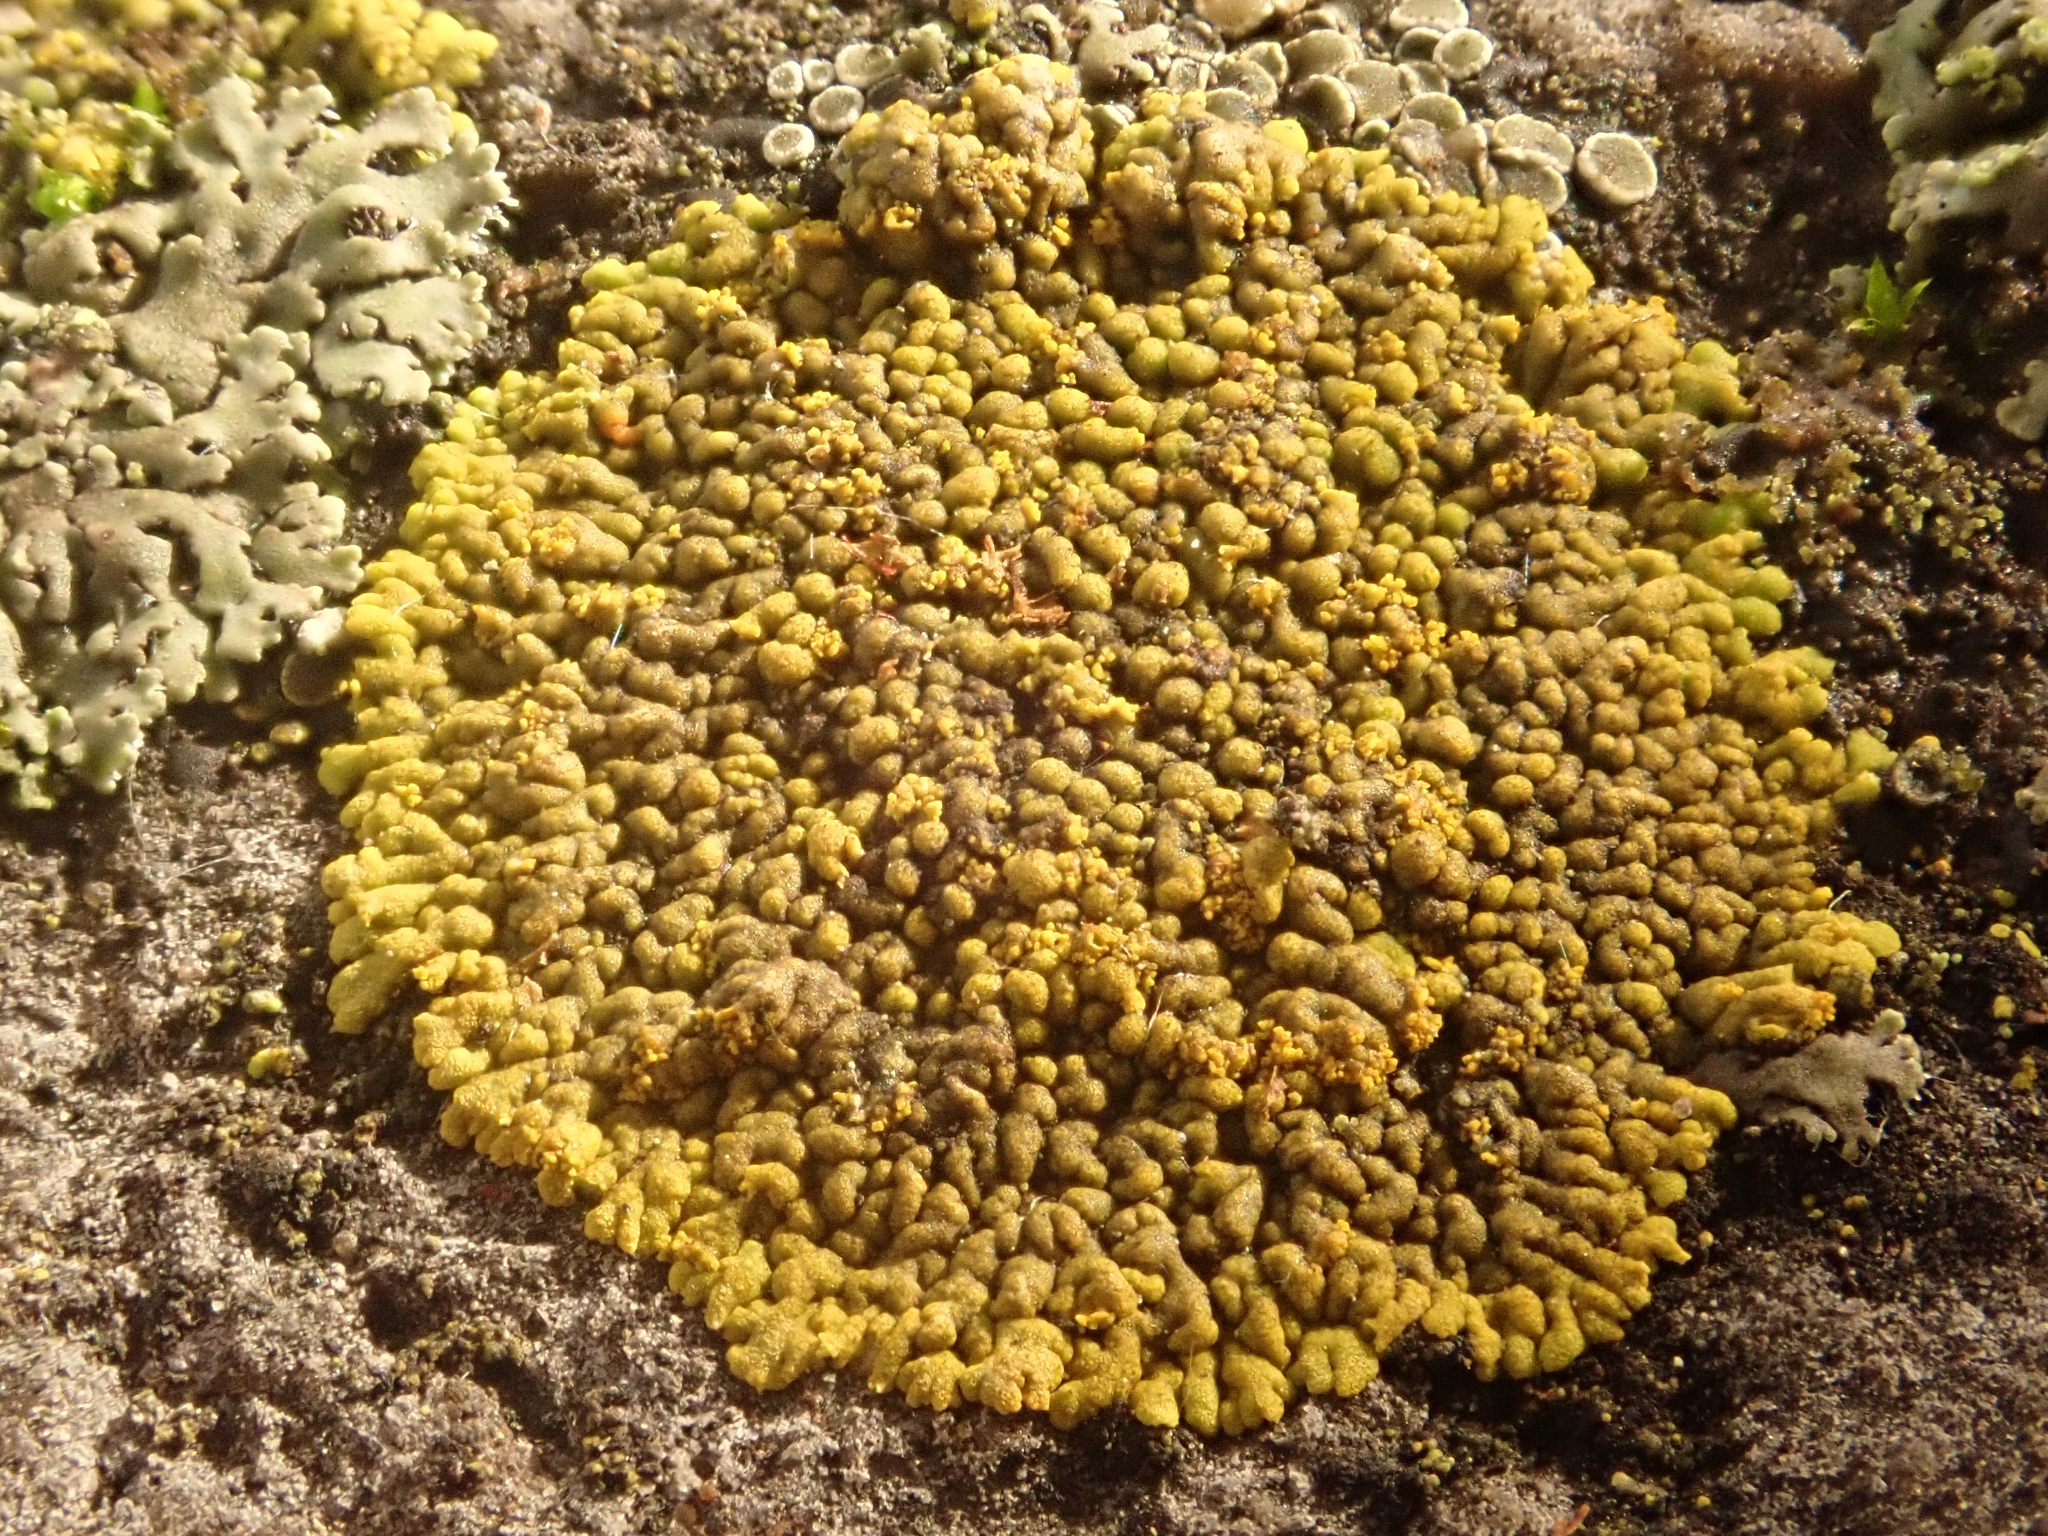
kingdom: Fungi
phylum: Ascomycota
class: Lecanoromycetes
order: Teloschistales
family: Teloschistaceae
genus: Calogaya
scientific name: Calogaya decipiens
